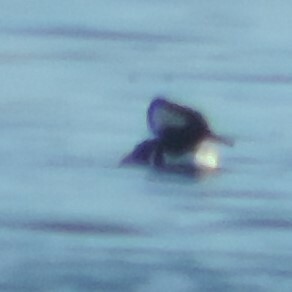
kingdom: Animalia
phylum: Chordata
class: Aves
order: Anseriformes
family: Anatidae
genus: Lophodytes
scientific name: Lophodytes cucullatus
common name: Hooded merganser
